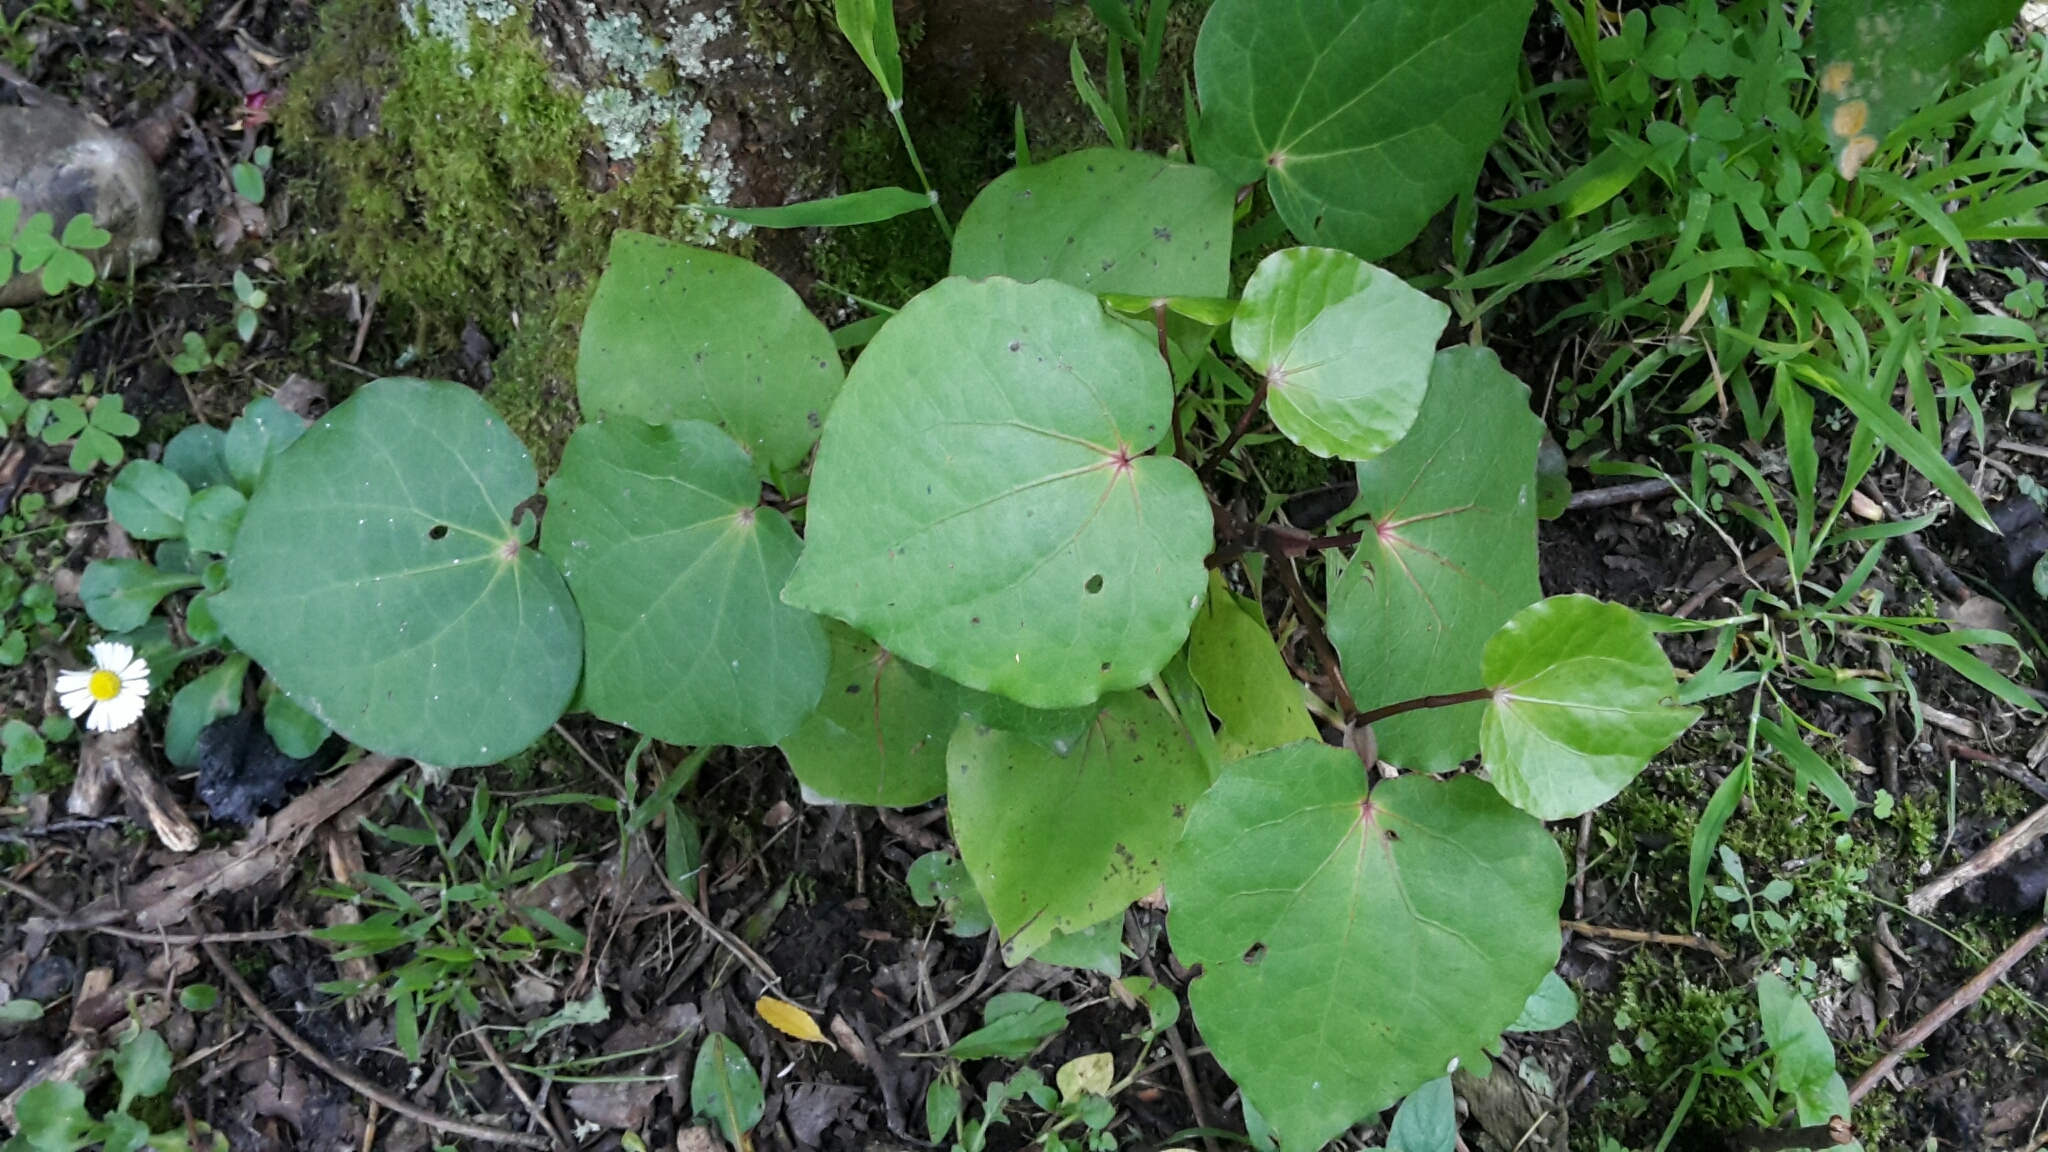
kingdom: Plantae
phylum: Tracheophyta
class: Magnoliopsida
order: Piperales
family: Piperaceae
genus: Macropiper
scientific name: Macropiper excelsum
